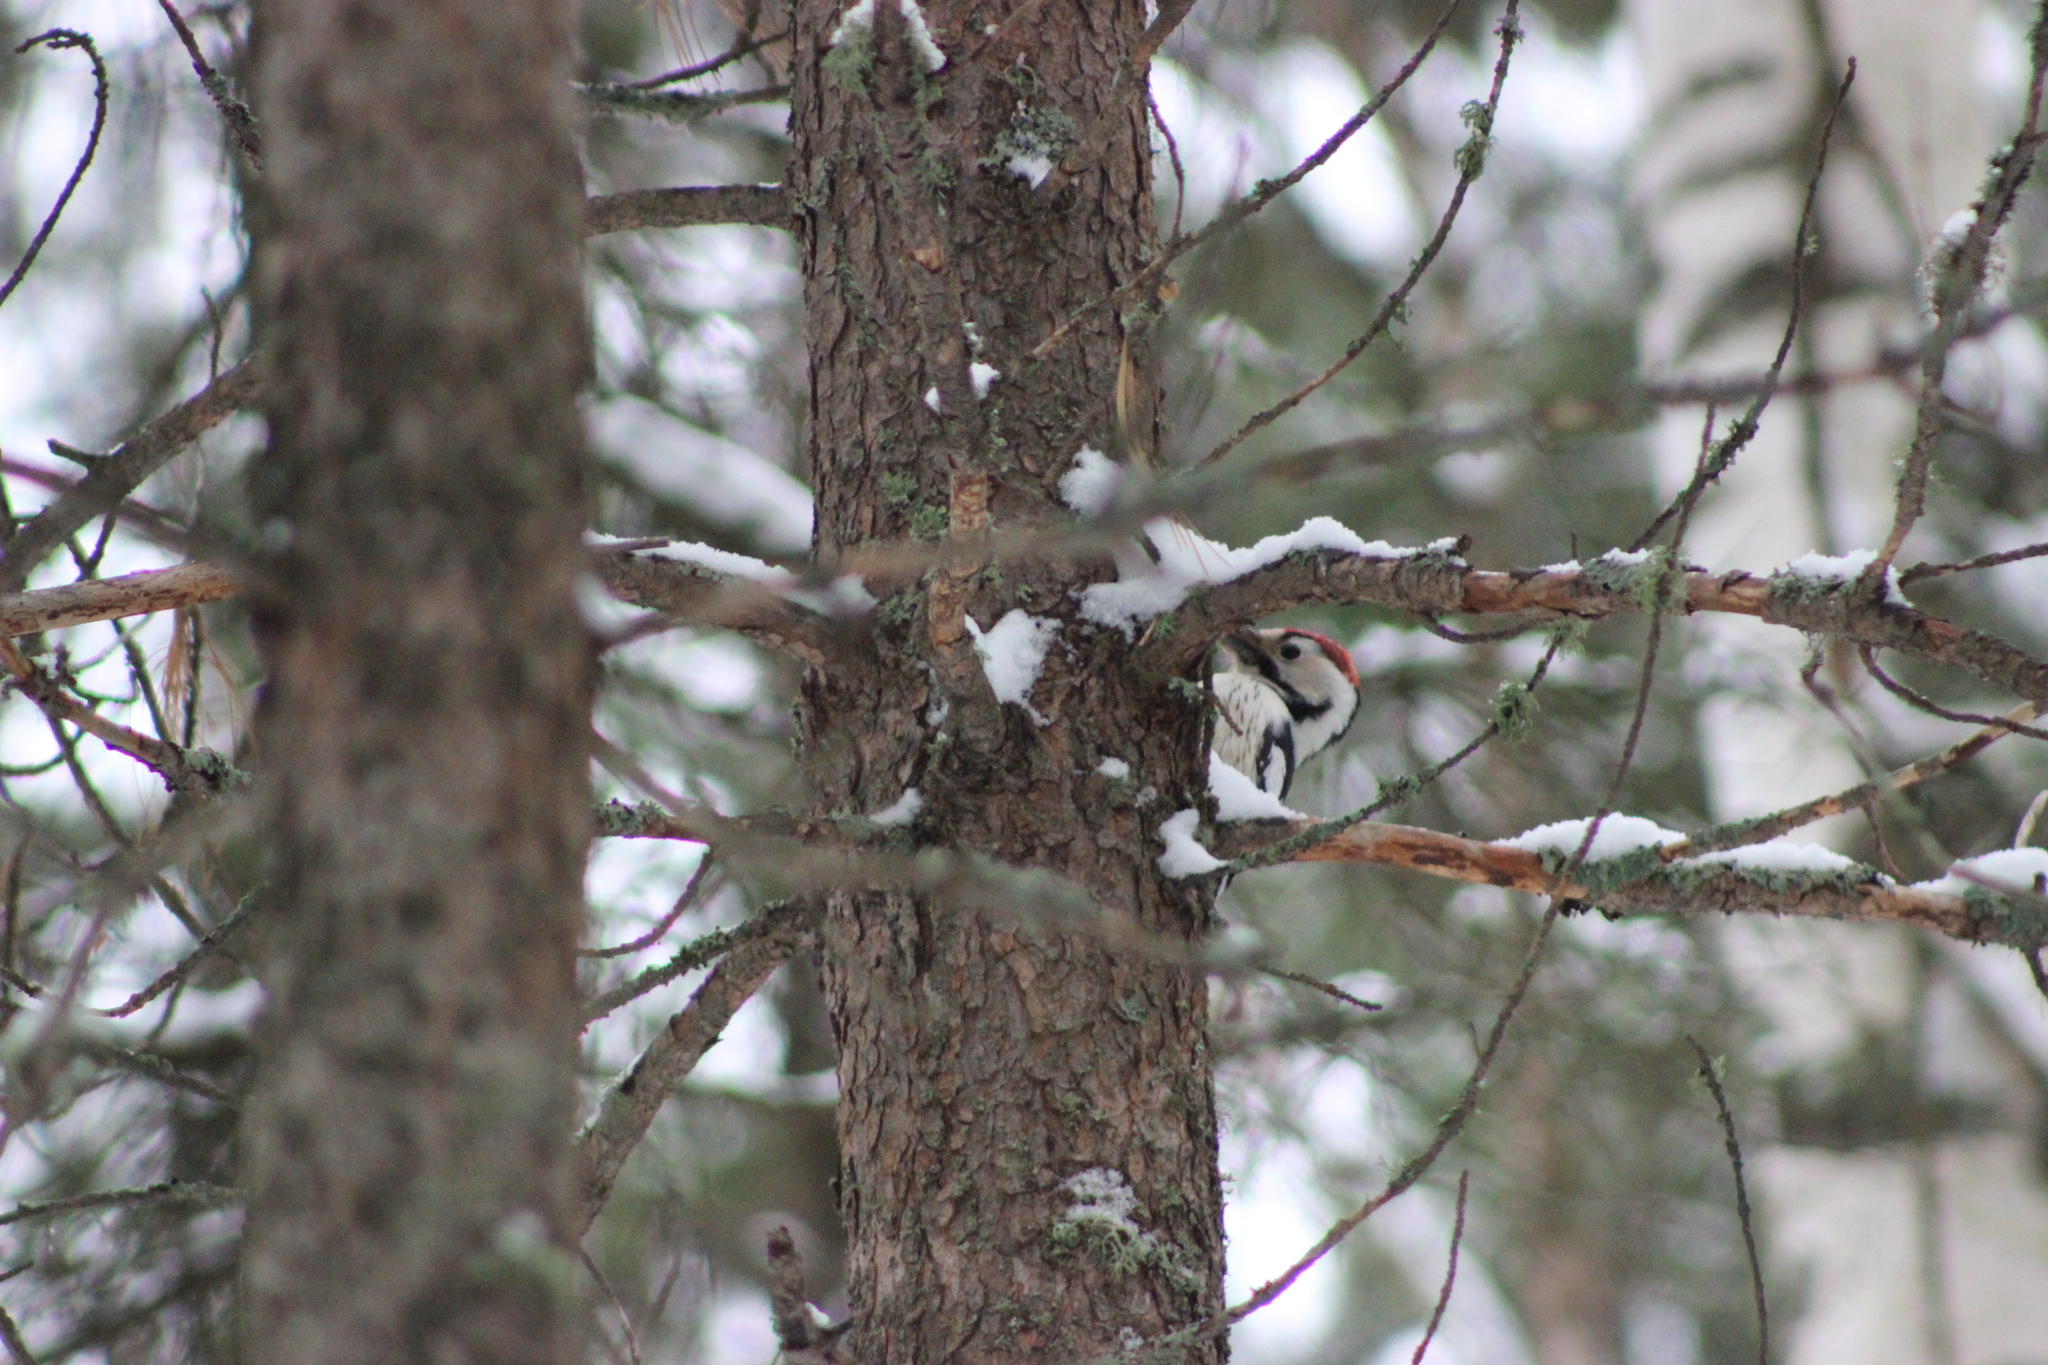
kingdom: Animalia
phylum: Chordata
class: Aves
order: Piciformes
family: Picidae
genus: Dendrocopos
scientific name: Dendrocopos leucotos
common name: White-backed woodpecker
